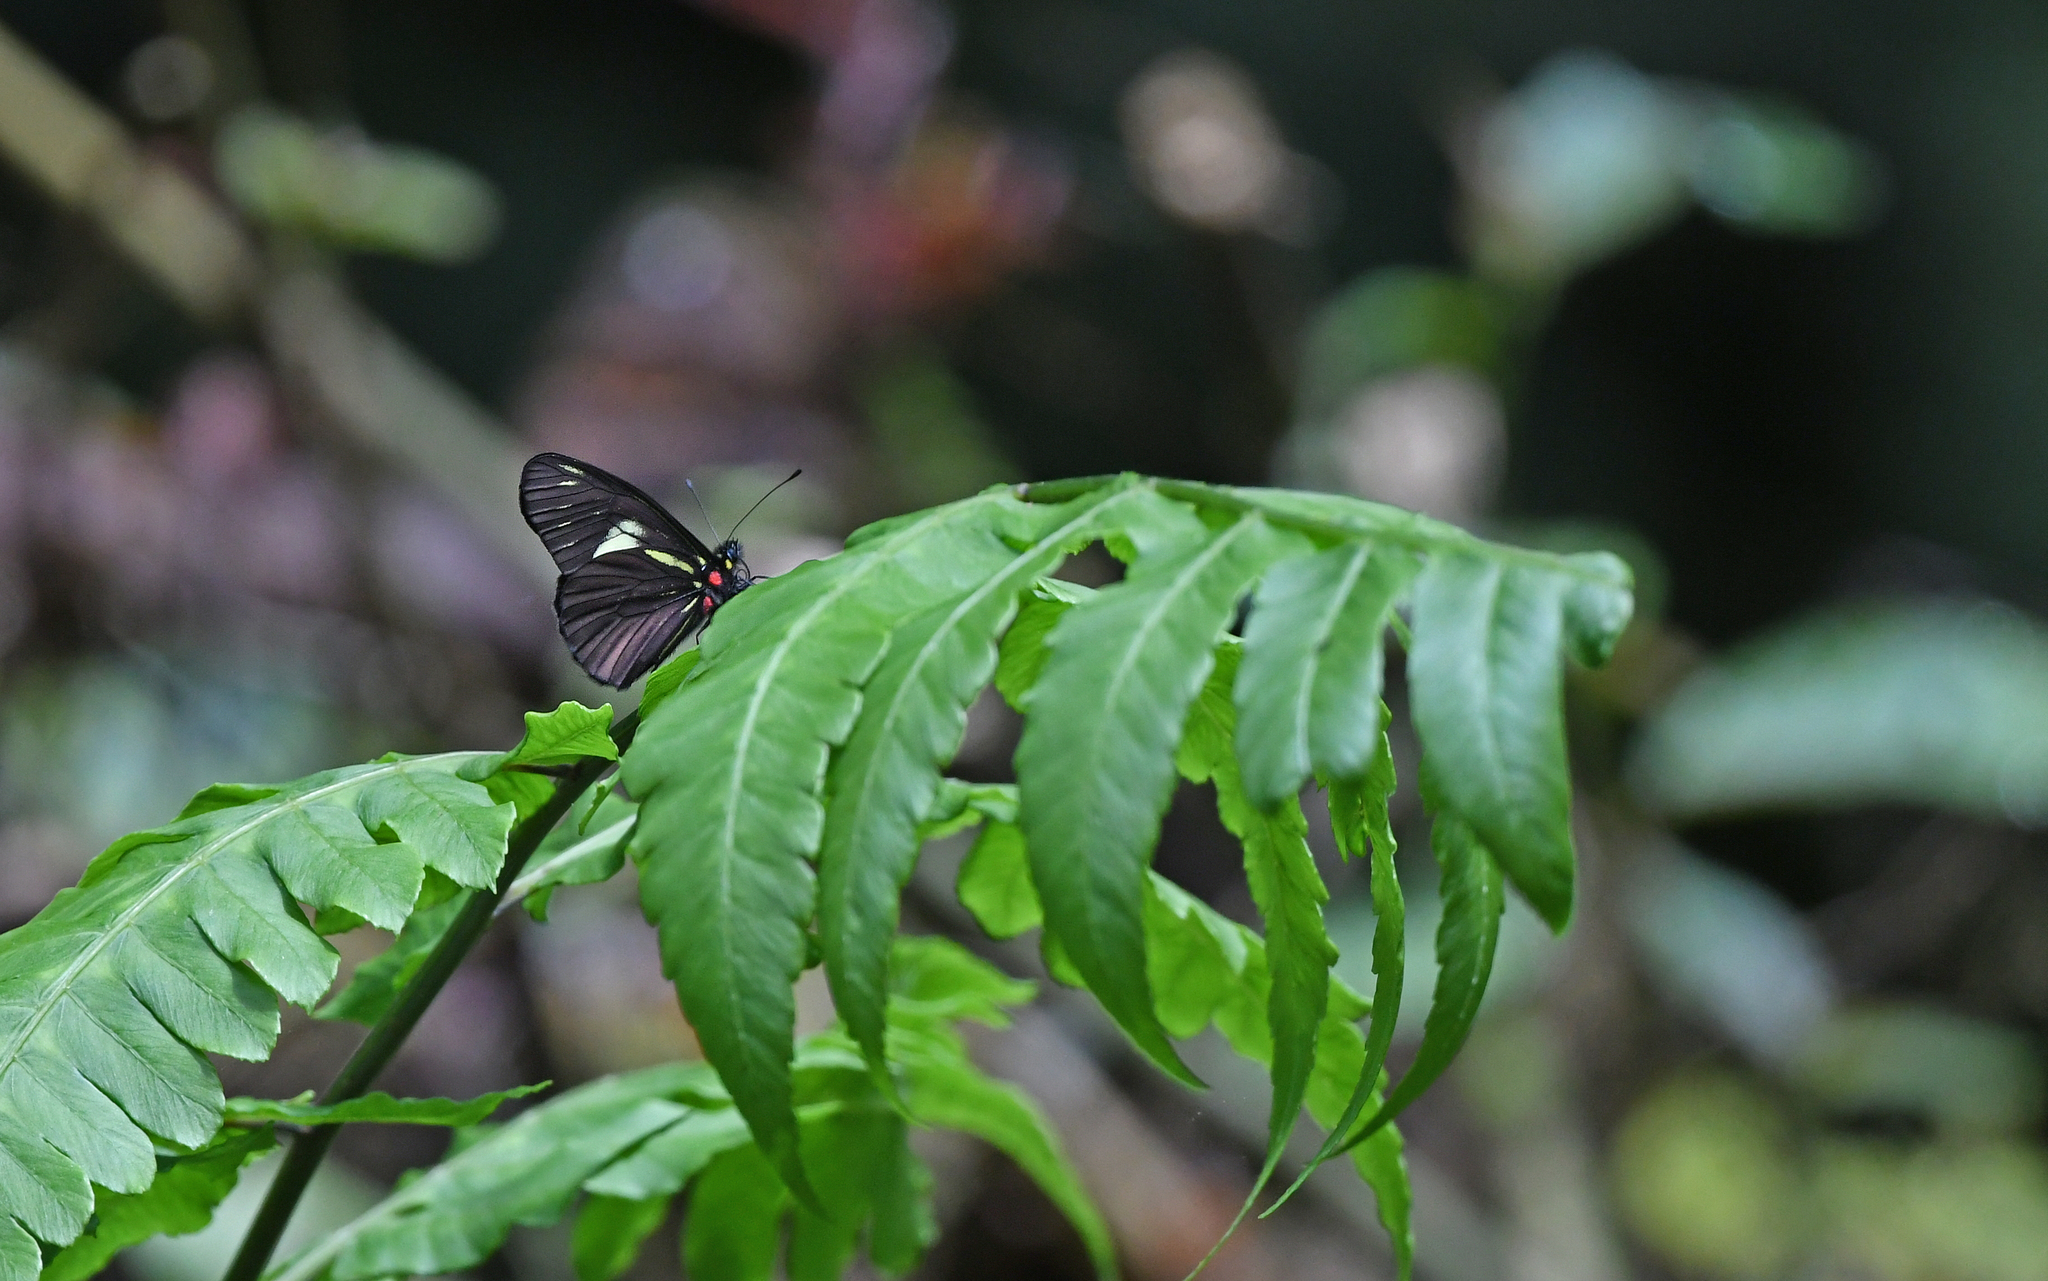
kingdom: Animalia
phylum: Arthropoda
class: Insecta
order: Lepidoptera
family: Pieridae
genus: Catasticta
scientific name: Catasticta pharnakia
